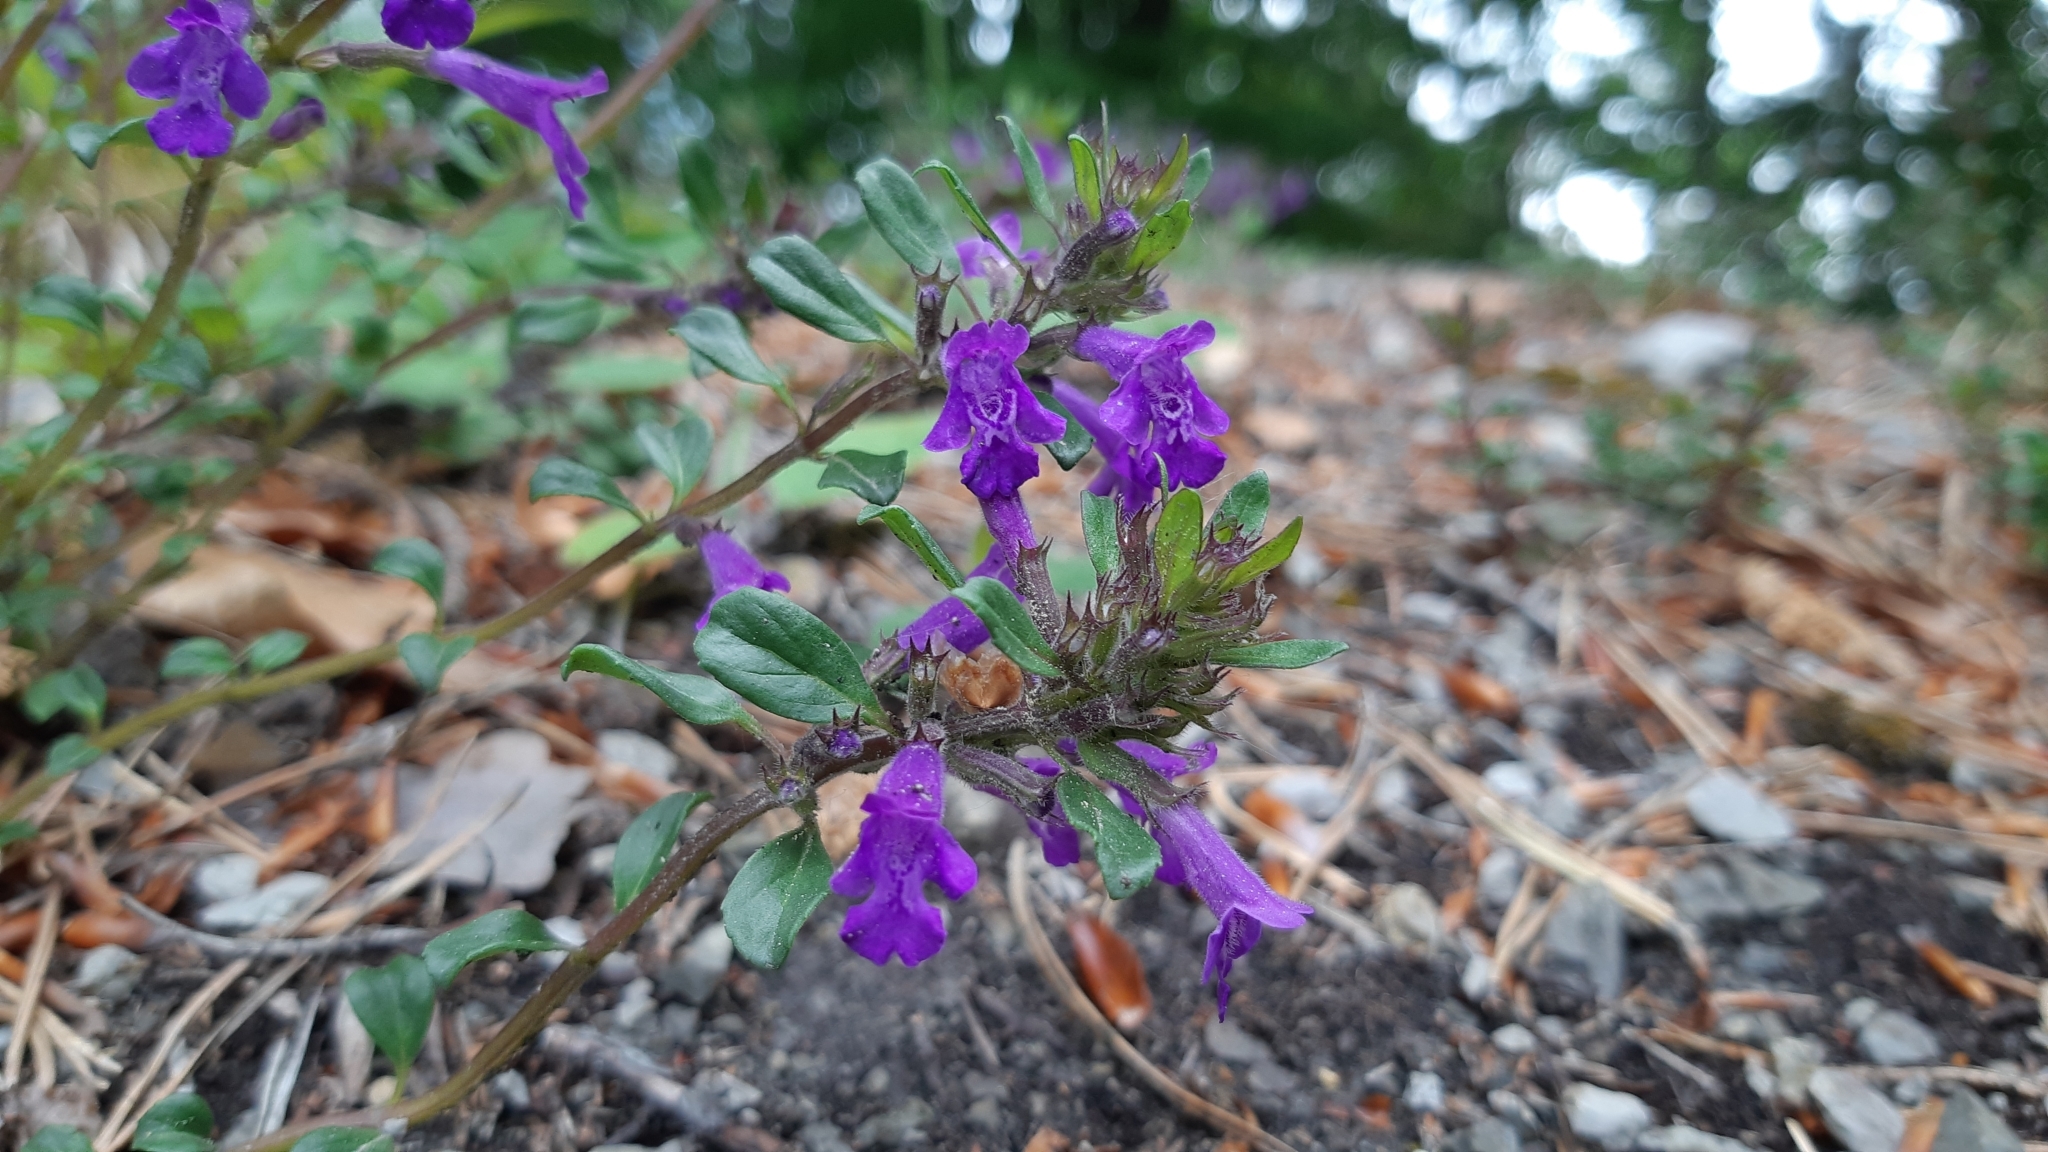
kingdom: Plantae
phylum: Tracheophyta
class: Magnoliopsida
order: Lamiales
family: Lamiaceae
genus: Clinopodium
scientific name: Clinopodium alpinum
